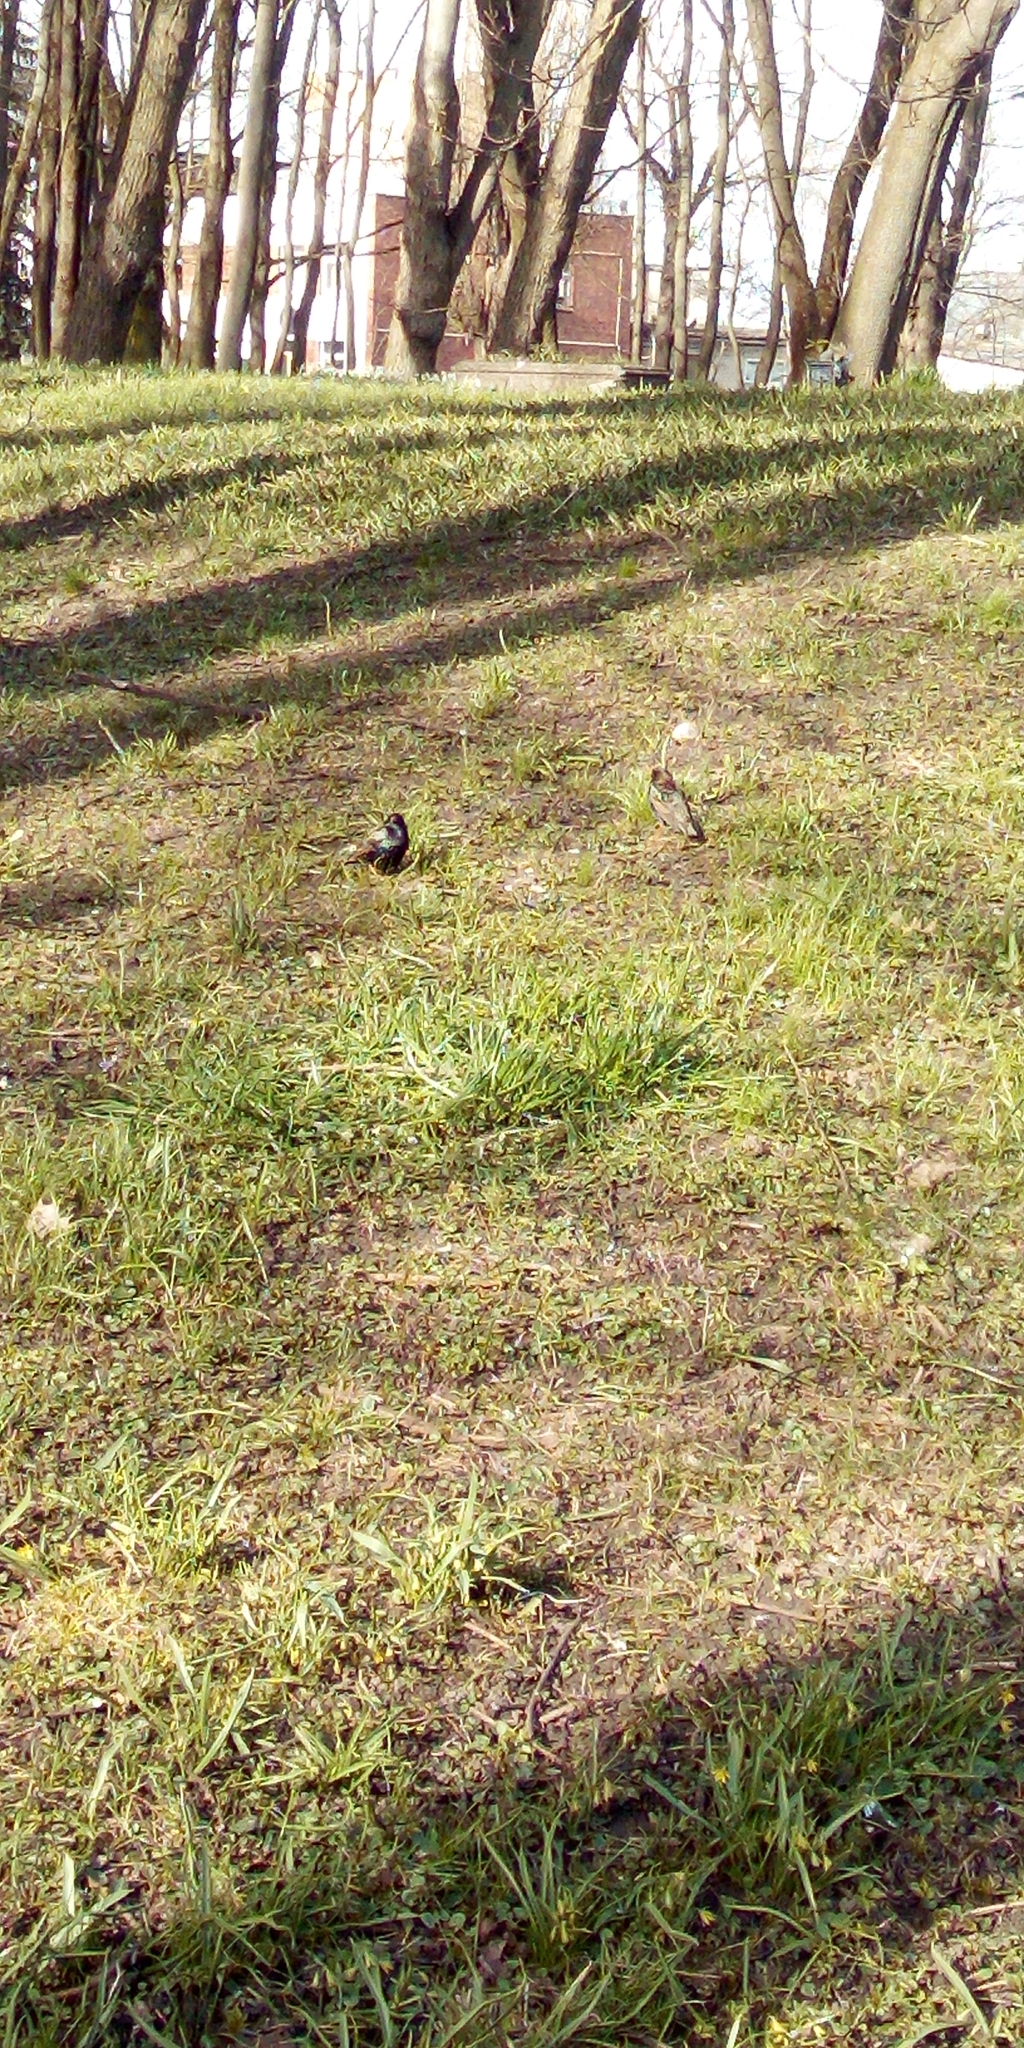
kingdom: Animalia
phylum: Chordata
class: Aves
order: Passeriformes
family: Sturnidae
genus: Sturnus
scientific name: Sturnus vulgaris
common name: Common starling
